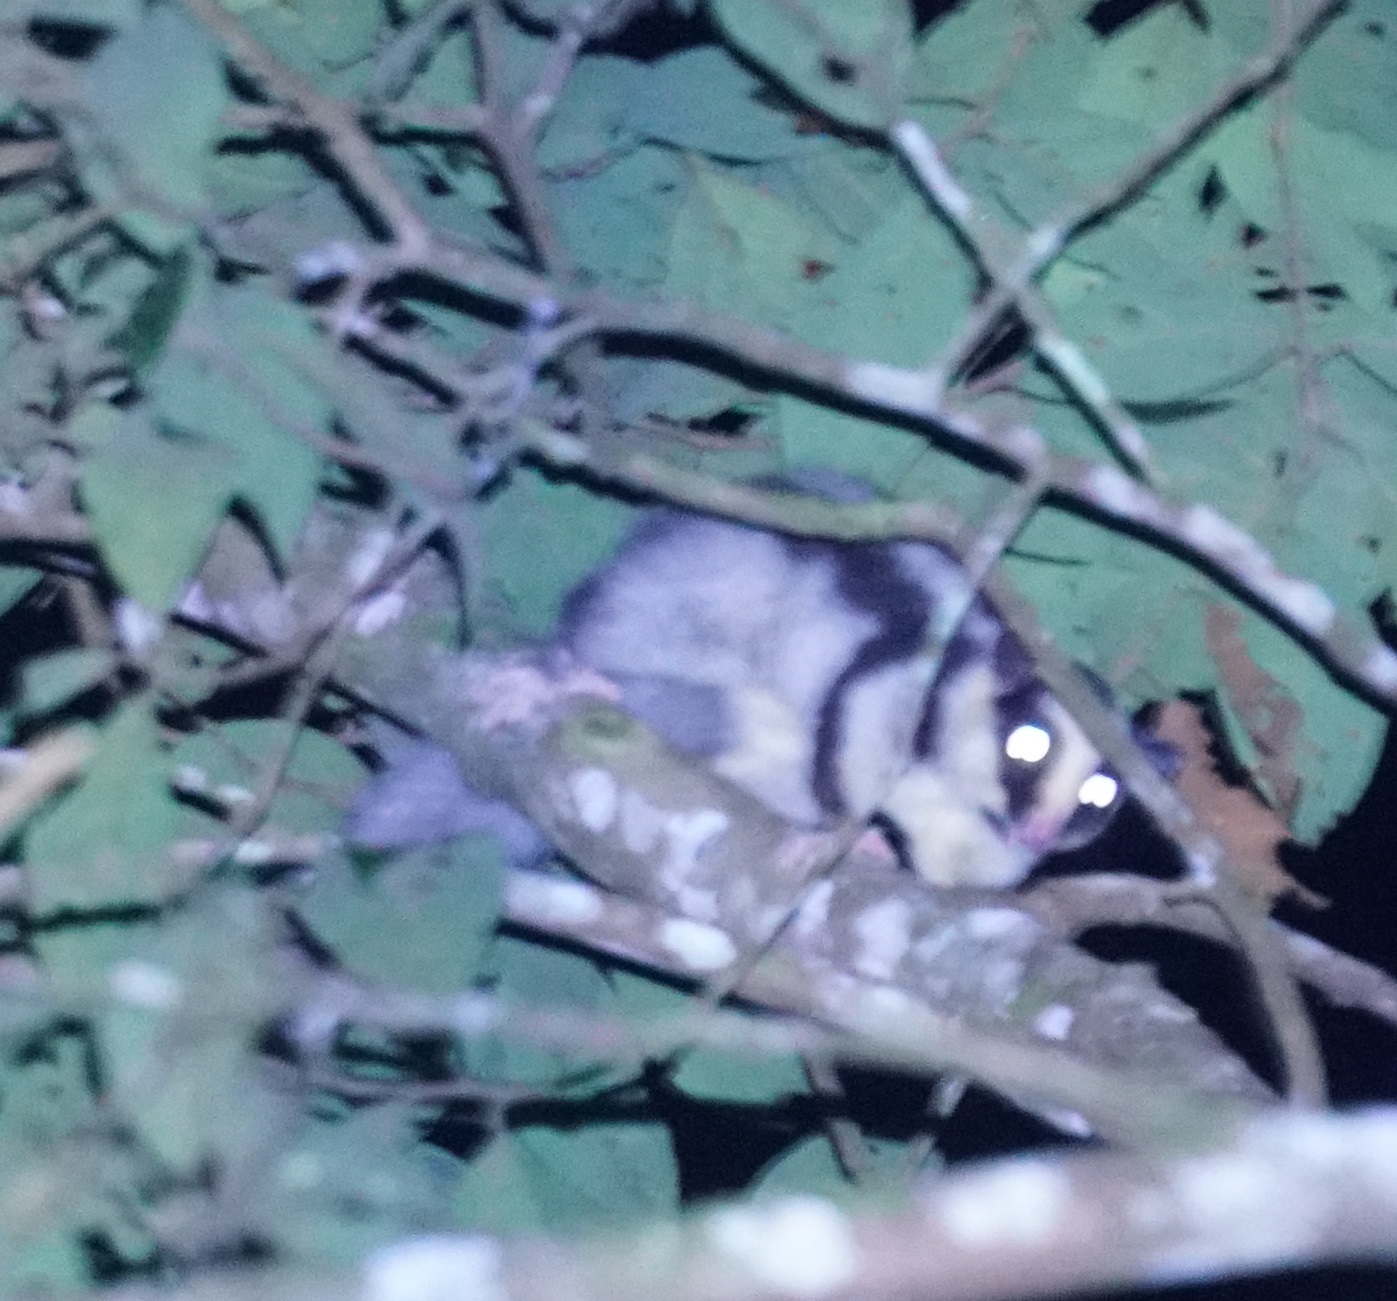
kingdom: Animalia
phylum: Chordata
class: Mammalia
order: Diprotodontia
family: Petauridae
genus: Dactylopsila
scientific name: Dactylopsila trivirgata
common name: Striped possum
